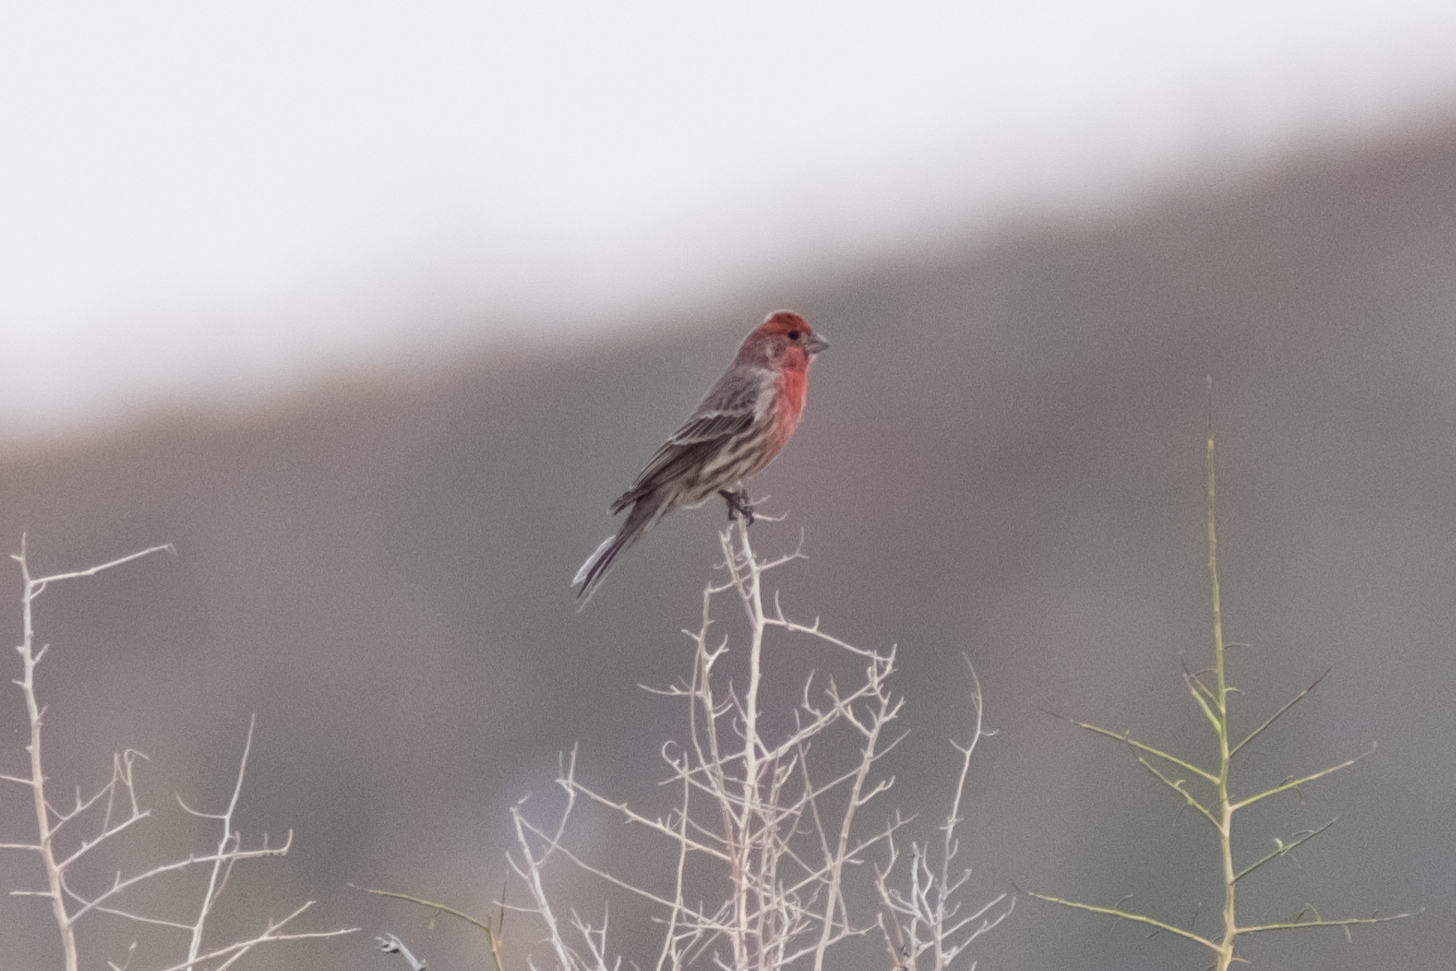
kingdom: Animalia
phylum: Chordata
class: Aves
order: Passeriformes
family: Fringillidae
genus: Haemorhous
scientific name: Haemorhous mexicanus
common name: House finch
